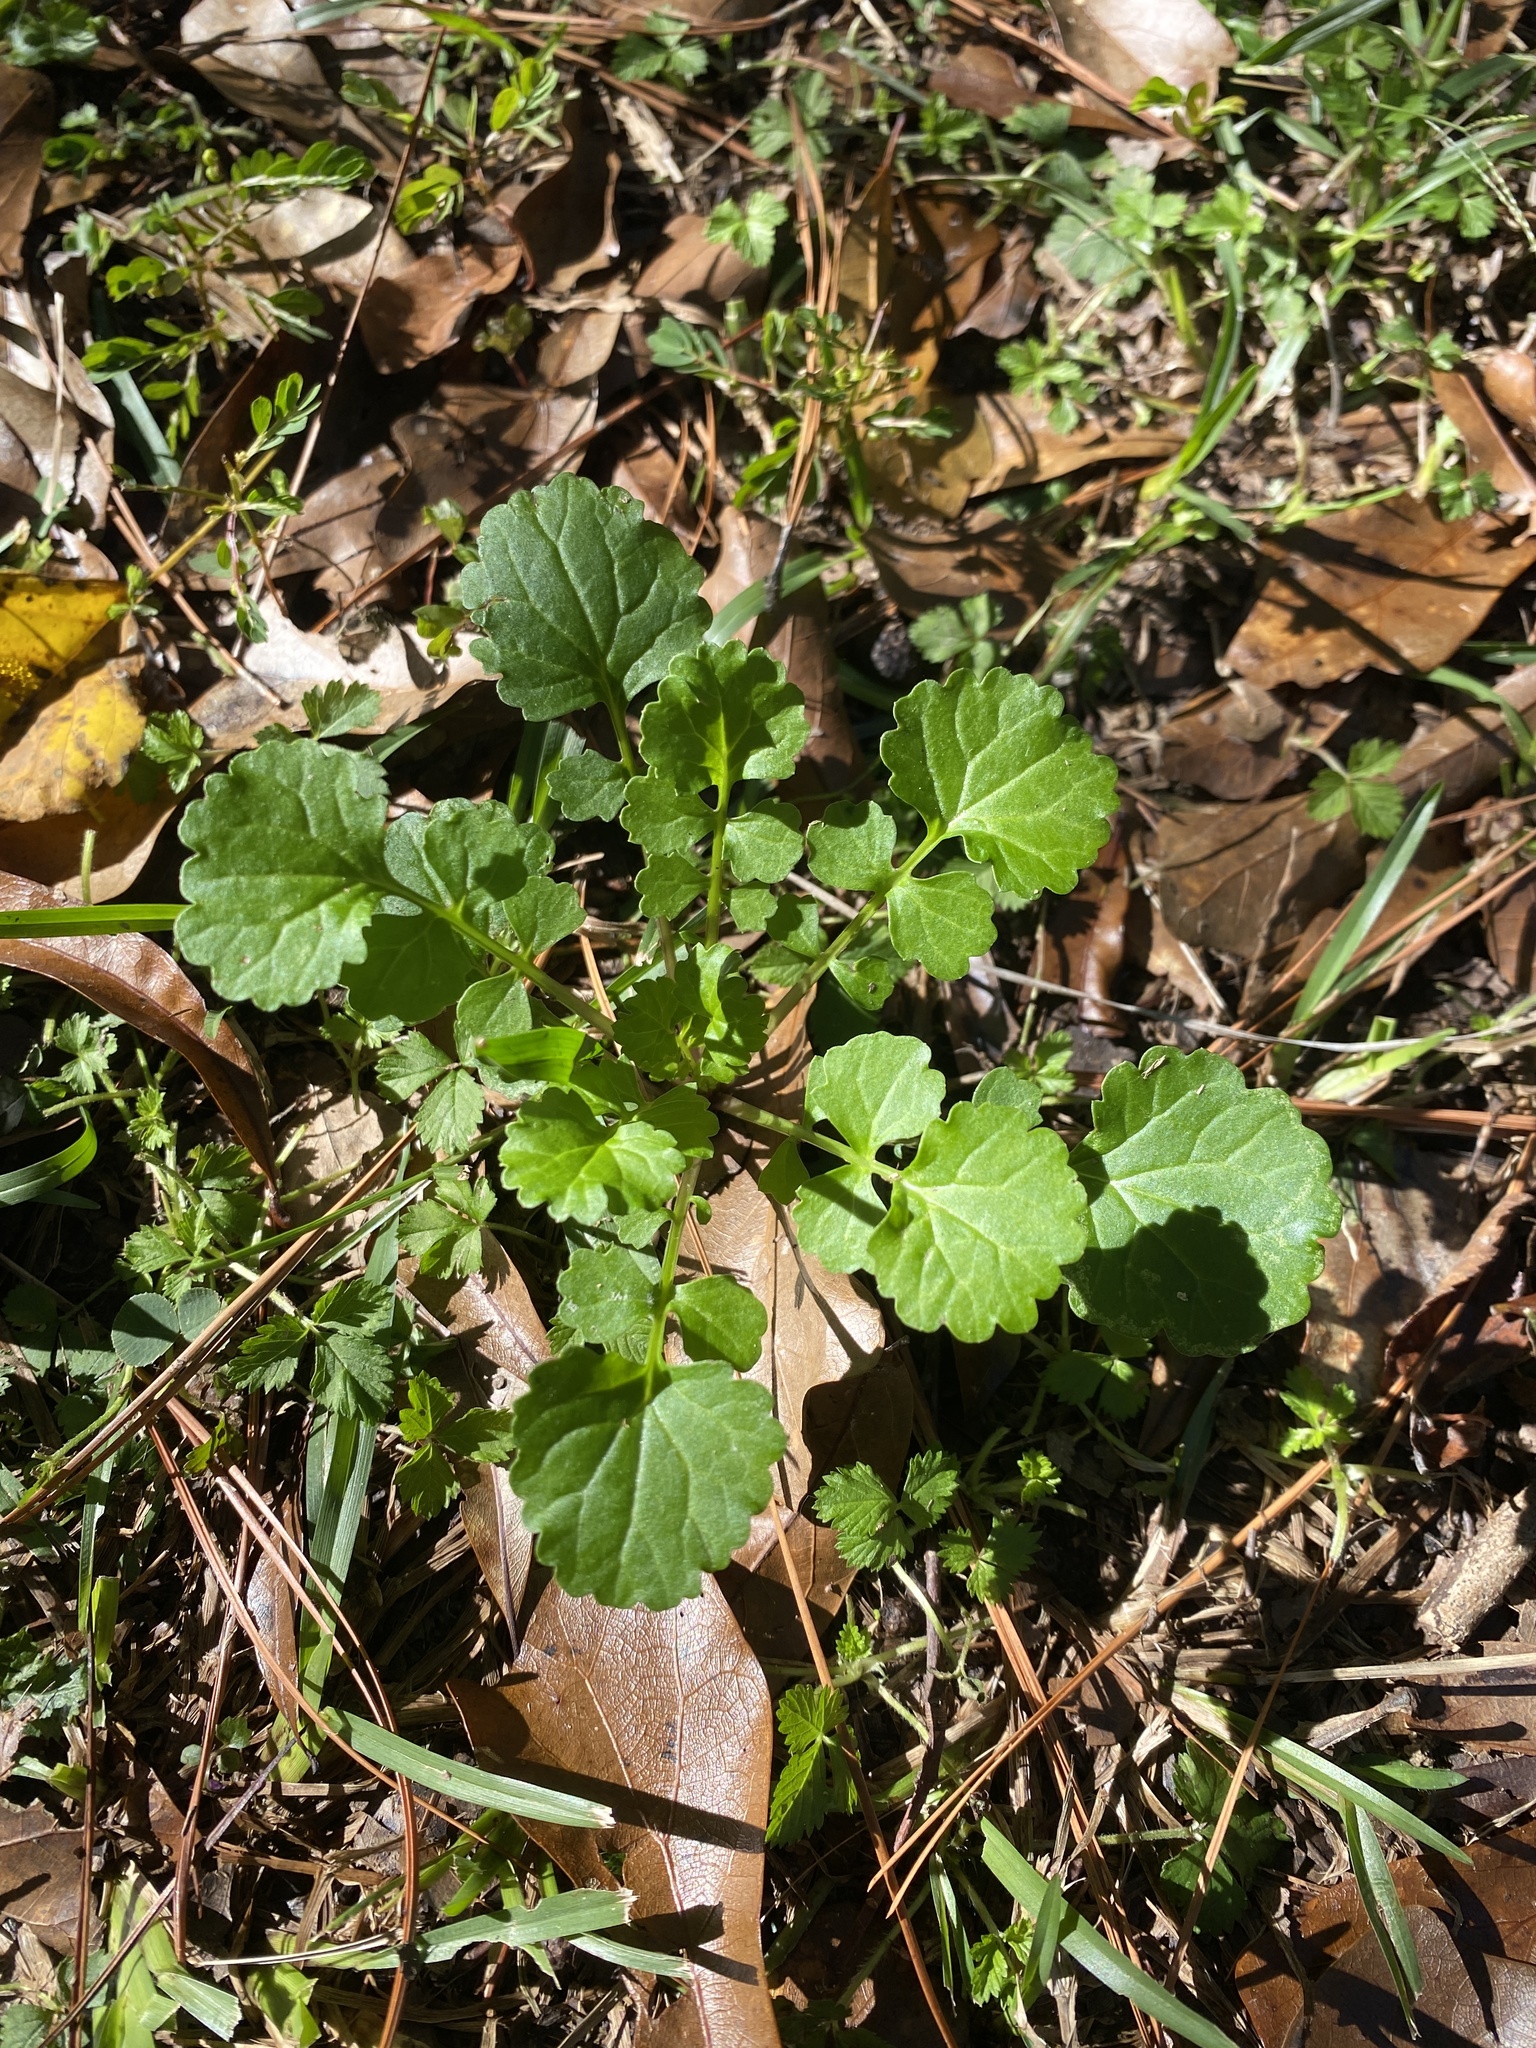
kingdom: Plantae
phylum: Tracheophyta
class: Magnoliopsida
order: Asterales
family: Asteraceae
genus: Packera
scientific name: Packera glabella
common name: Butterweed
